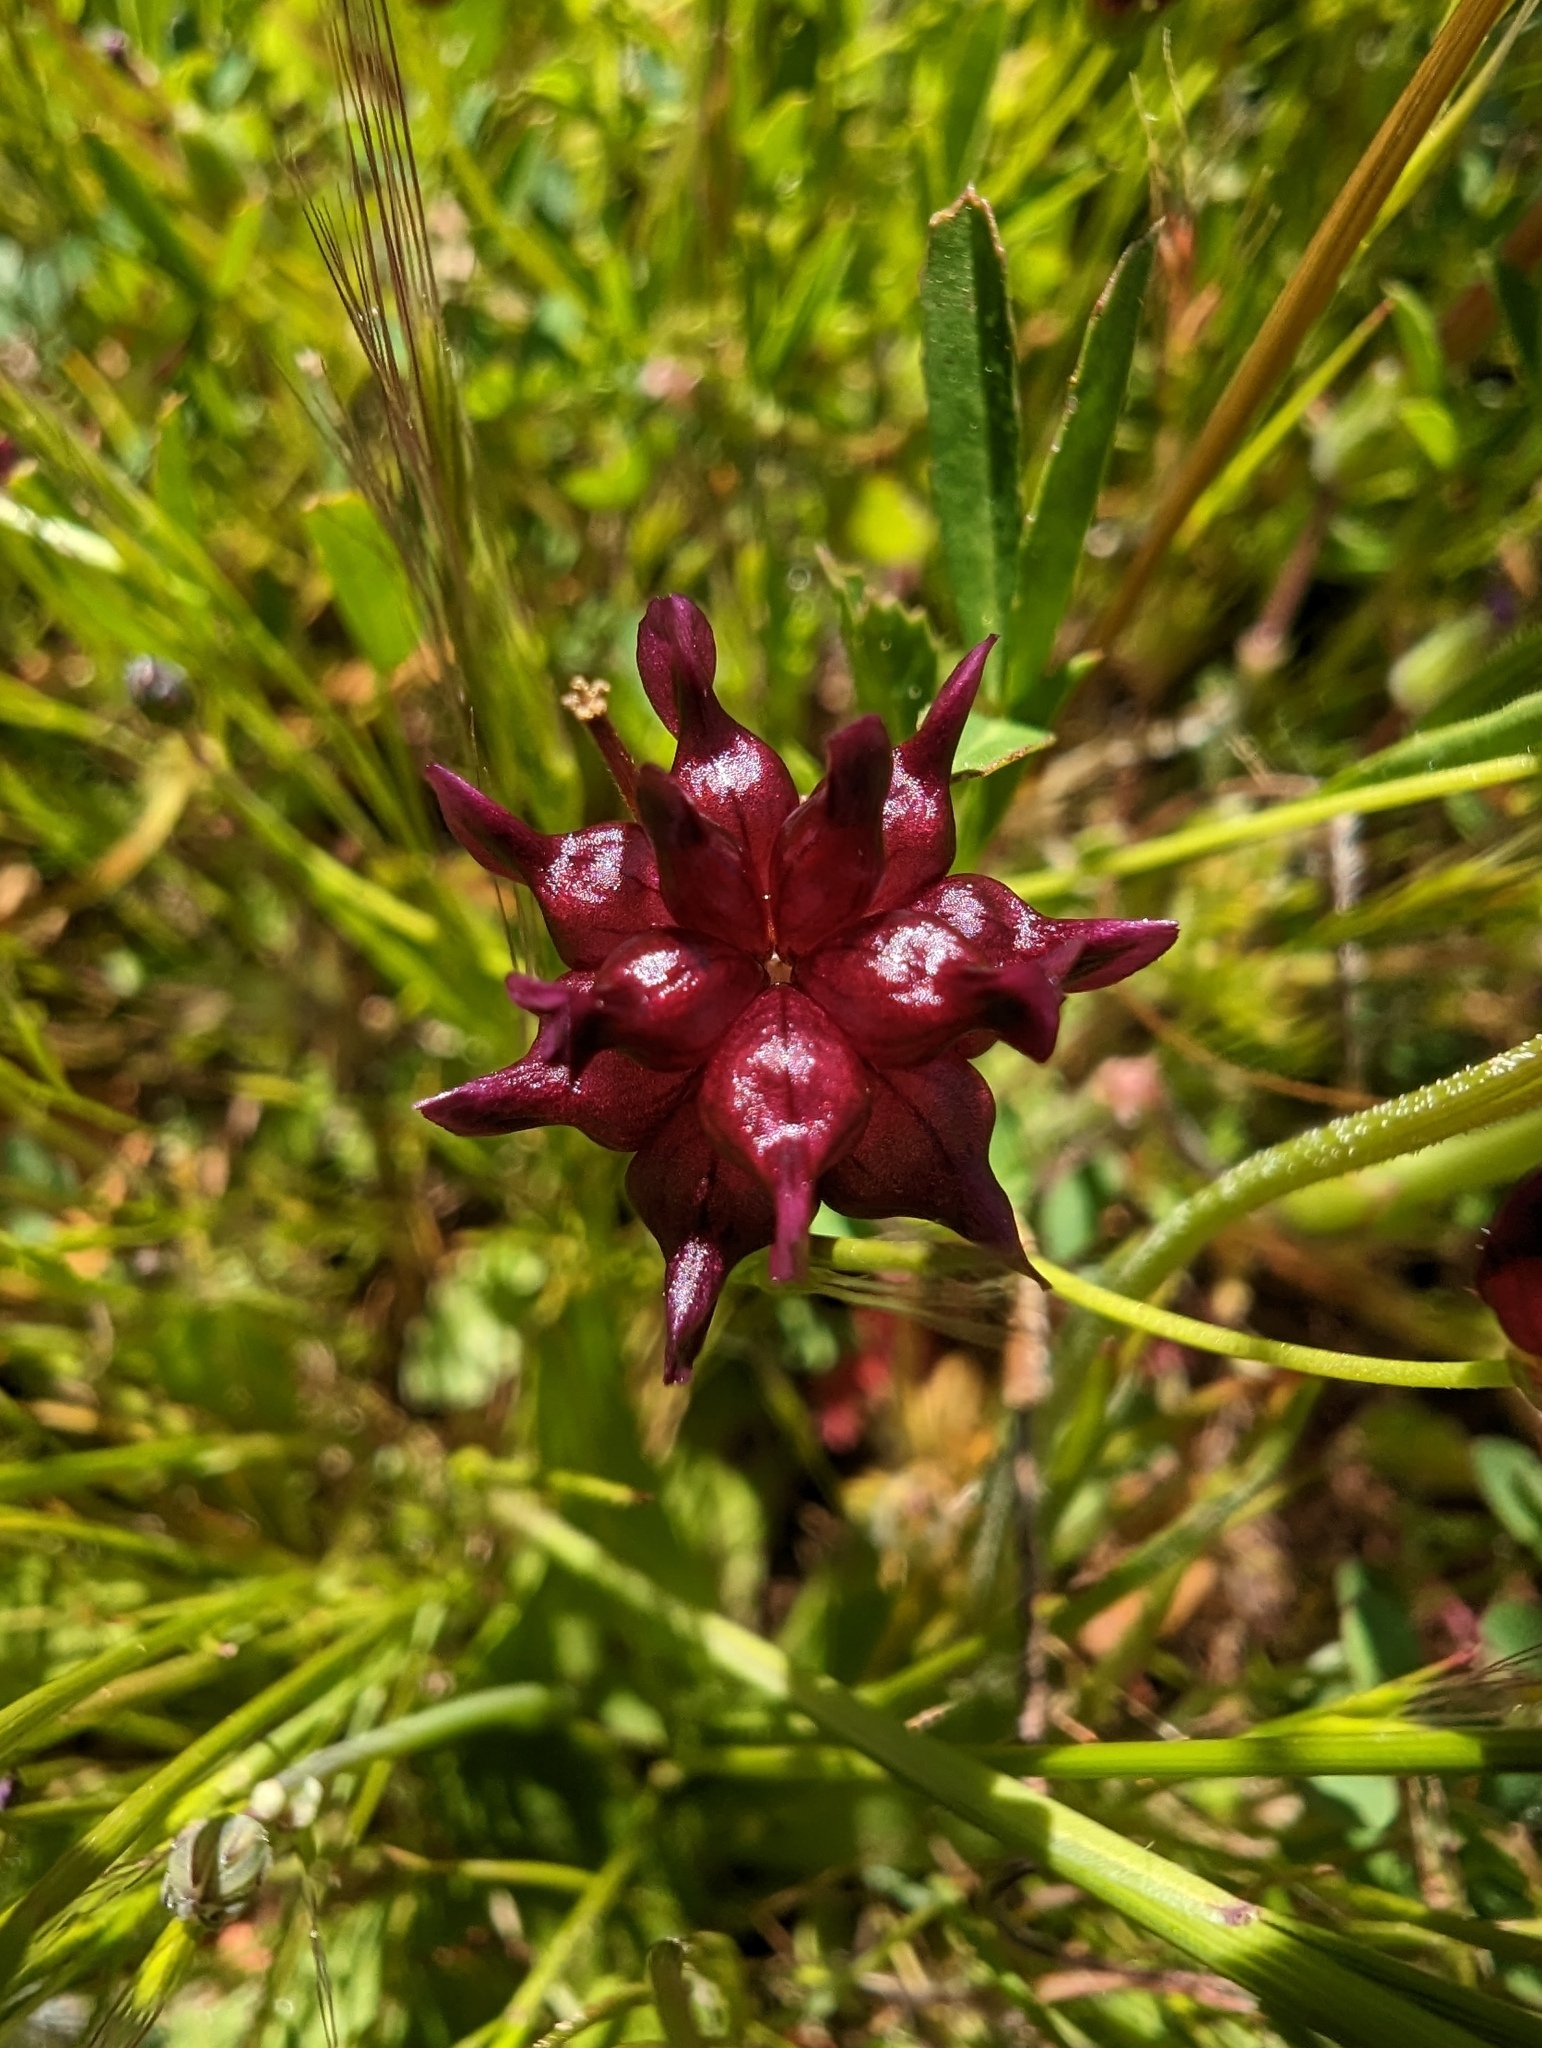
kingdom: Plantae
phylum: Tracheophyta
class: Magnoliopsida
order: Fabales
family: Fabaceae
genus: Trifolium
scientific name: Trifolium depauperatum
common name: Poverty clover
